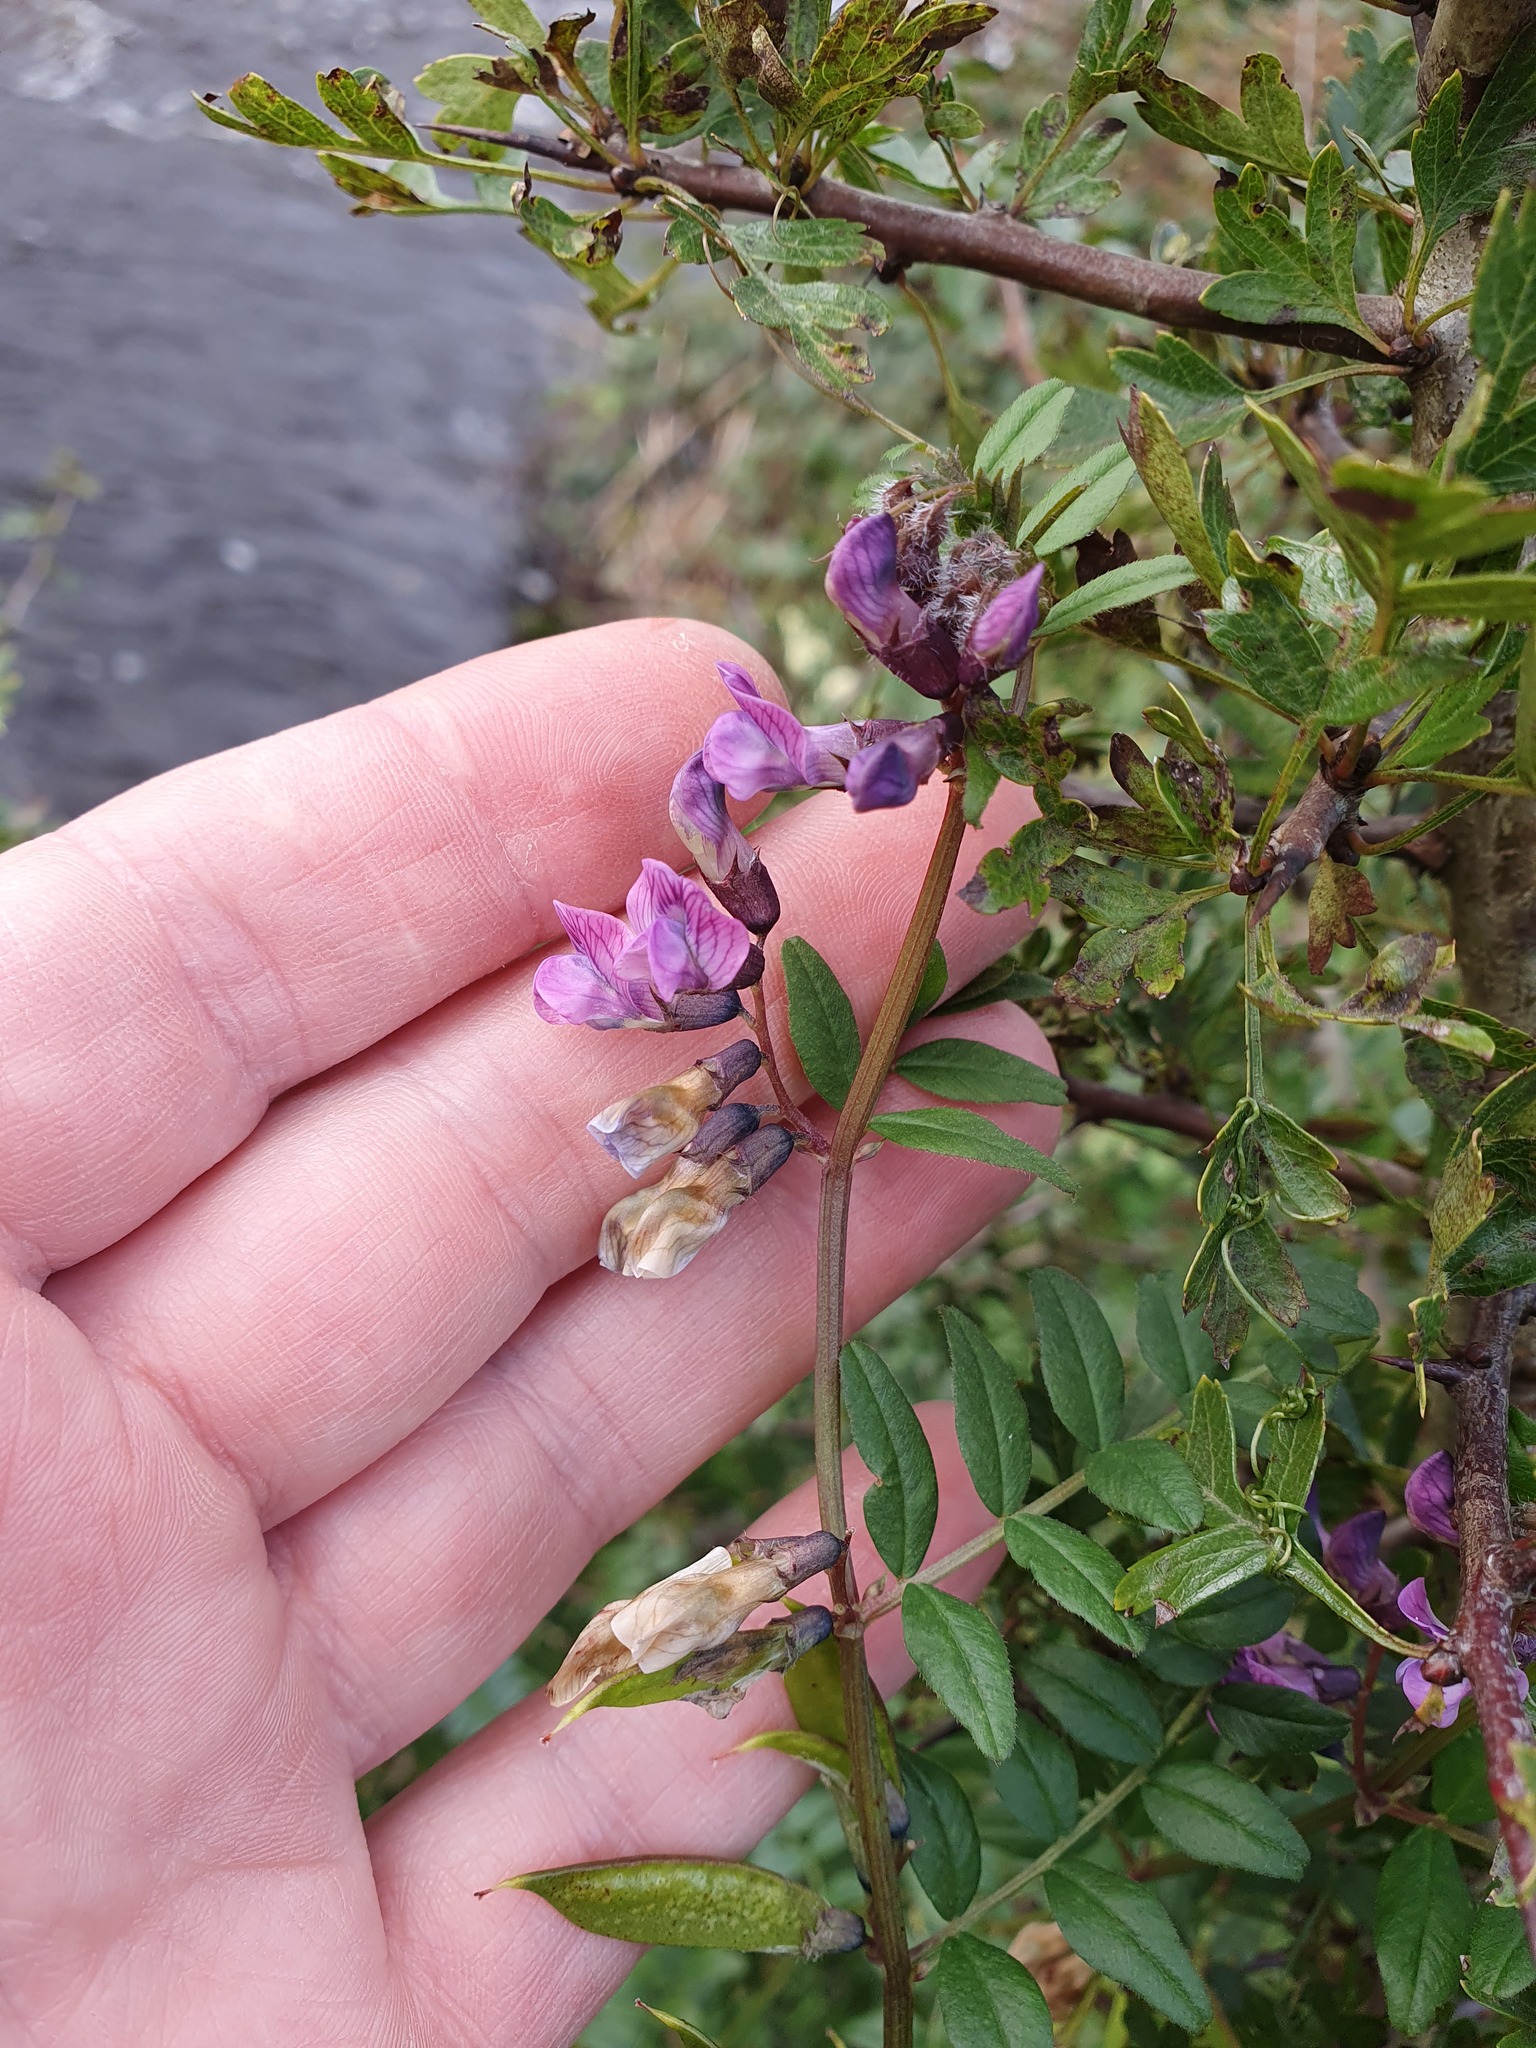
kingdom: Plantae
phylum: Tracheophyta
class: Magnoliopsida
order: Fabales
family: Fabaceae
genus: Vicia
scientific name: Vicia sepium
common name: Bush vetch
